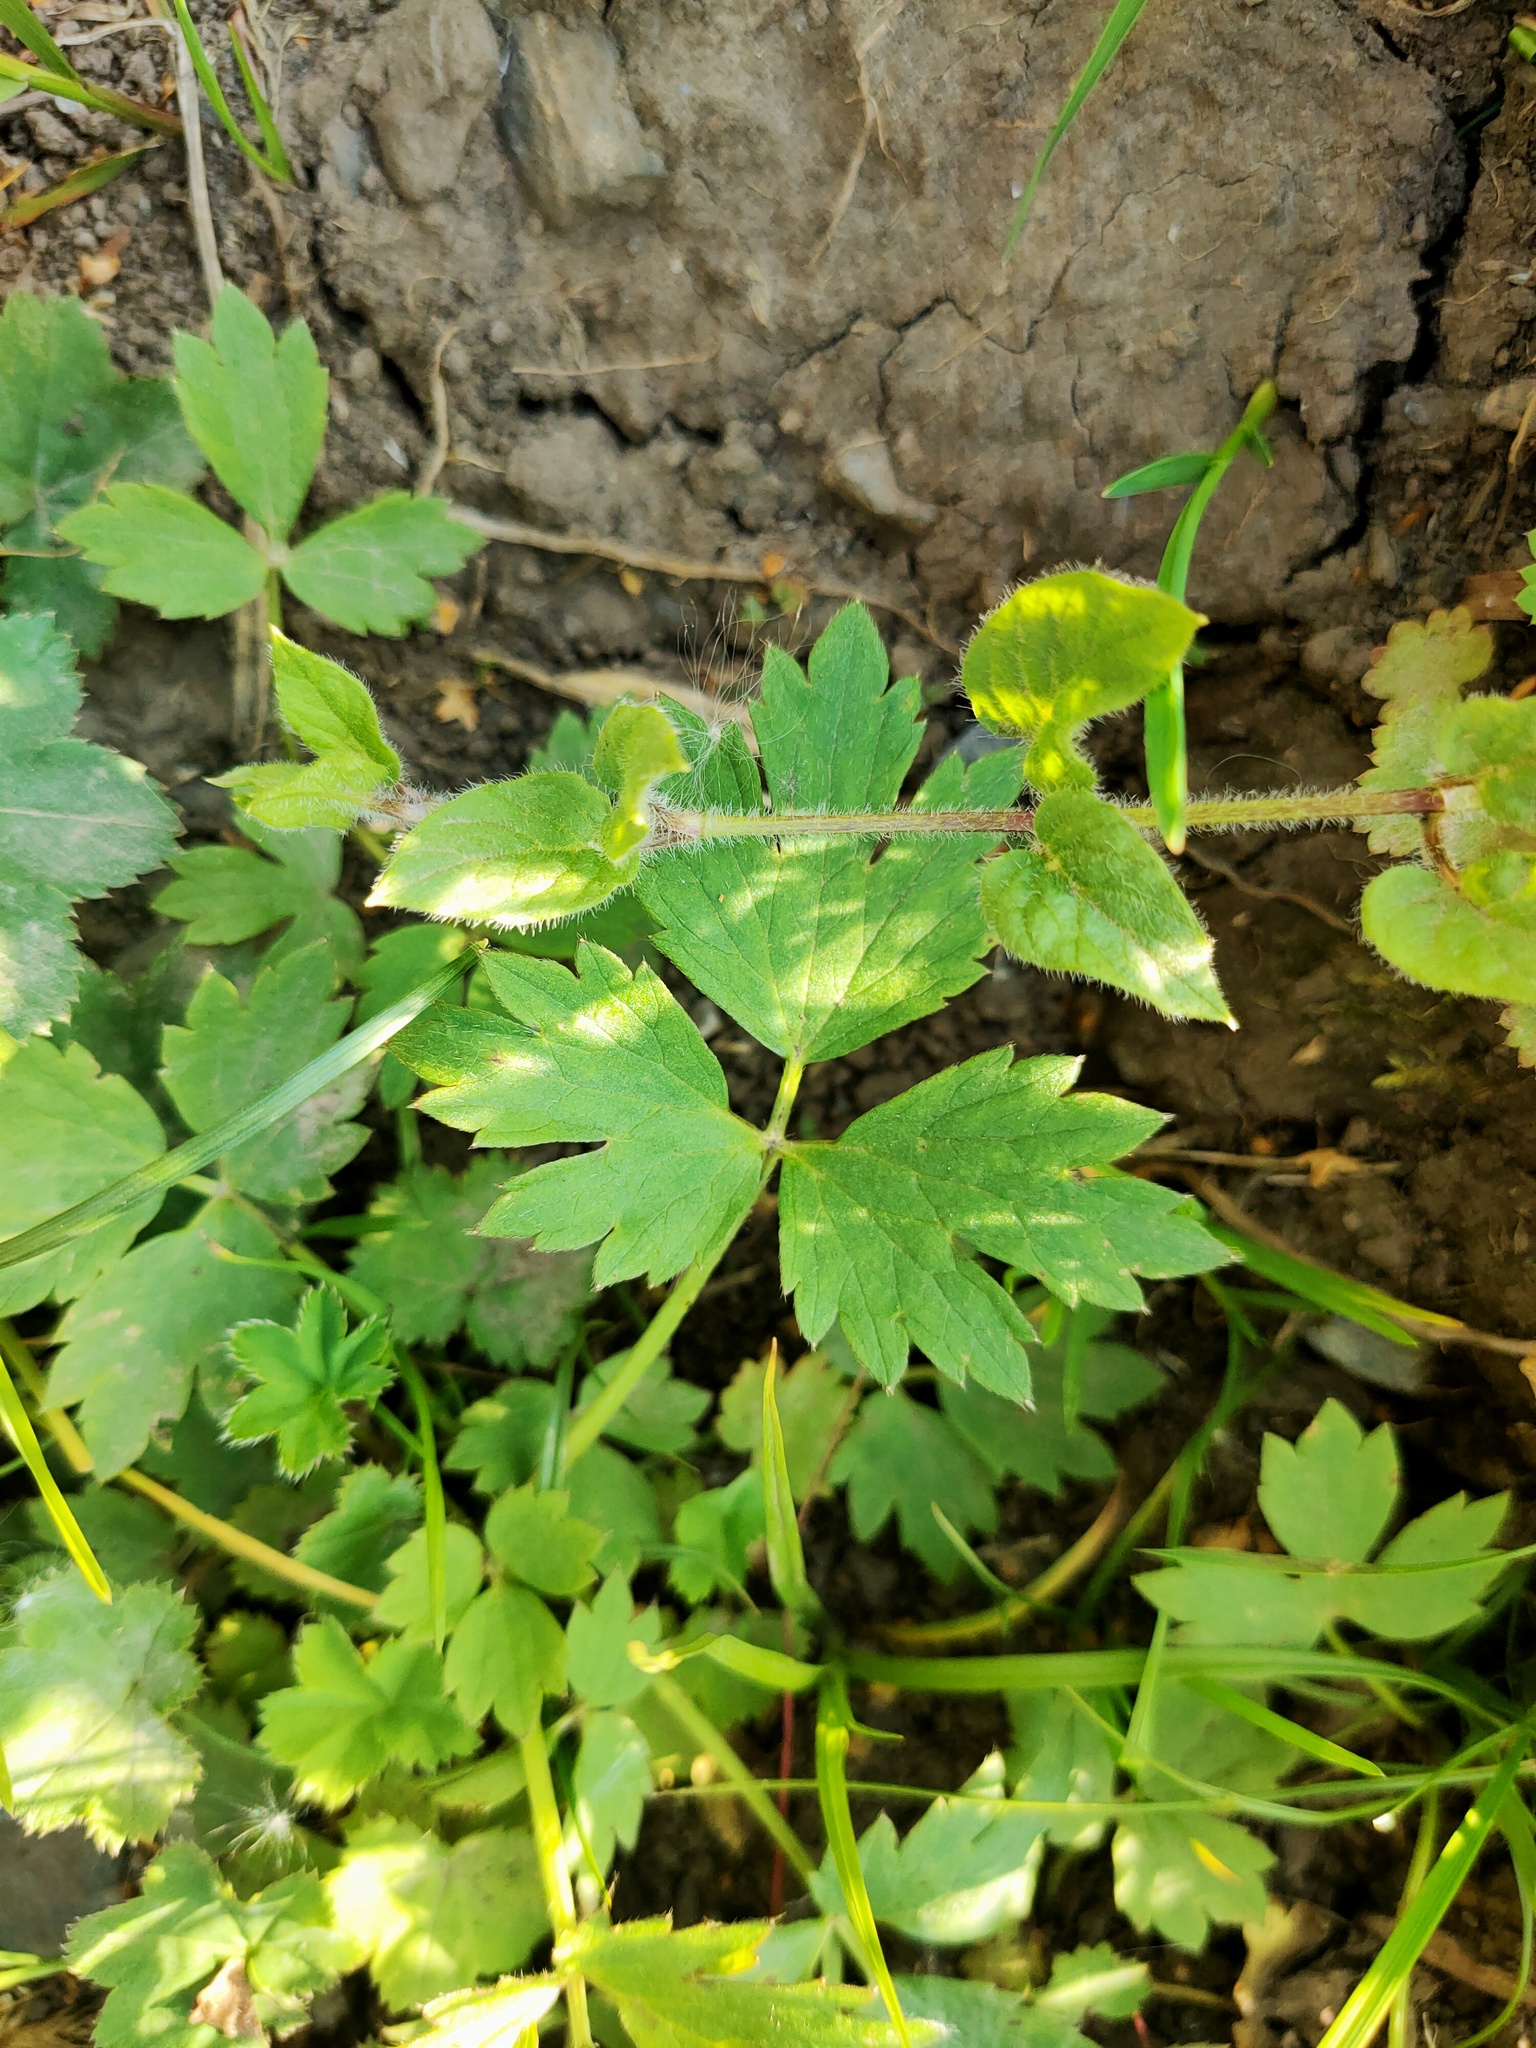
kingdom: Plantae
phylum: Tracheophyta
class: Magnoliopsida
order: Ranunculales
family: Ranunculaceae
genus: Ranunculus
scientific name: Ranunculus repens
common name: Creeping buttercup
